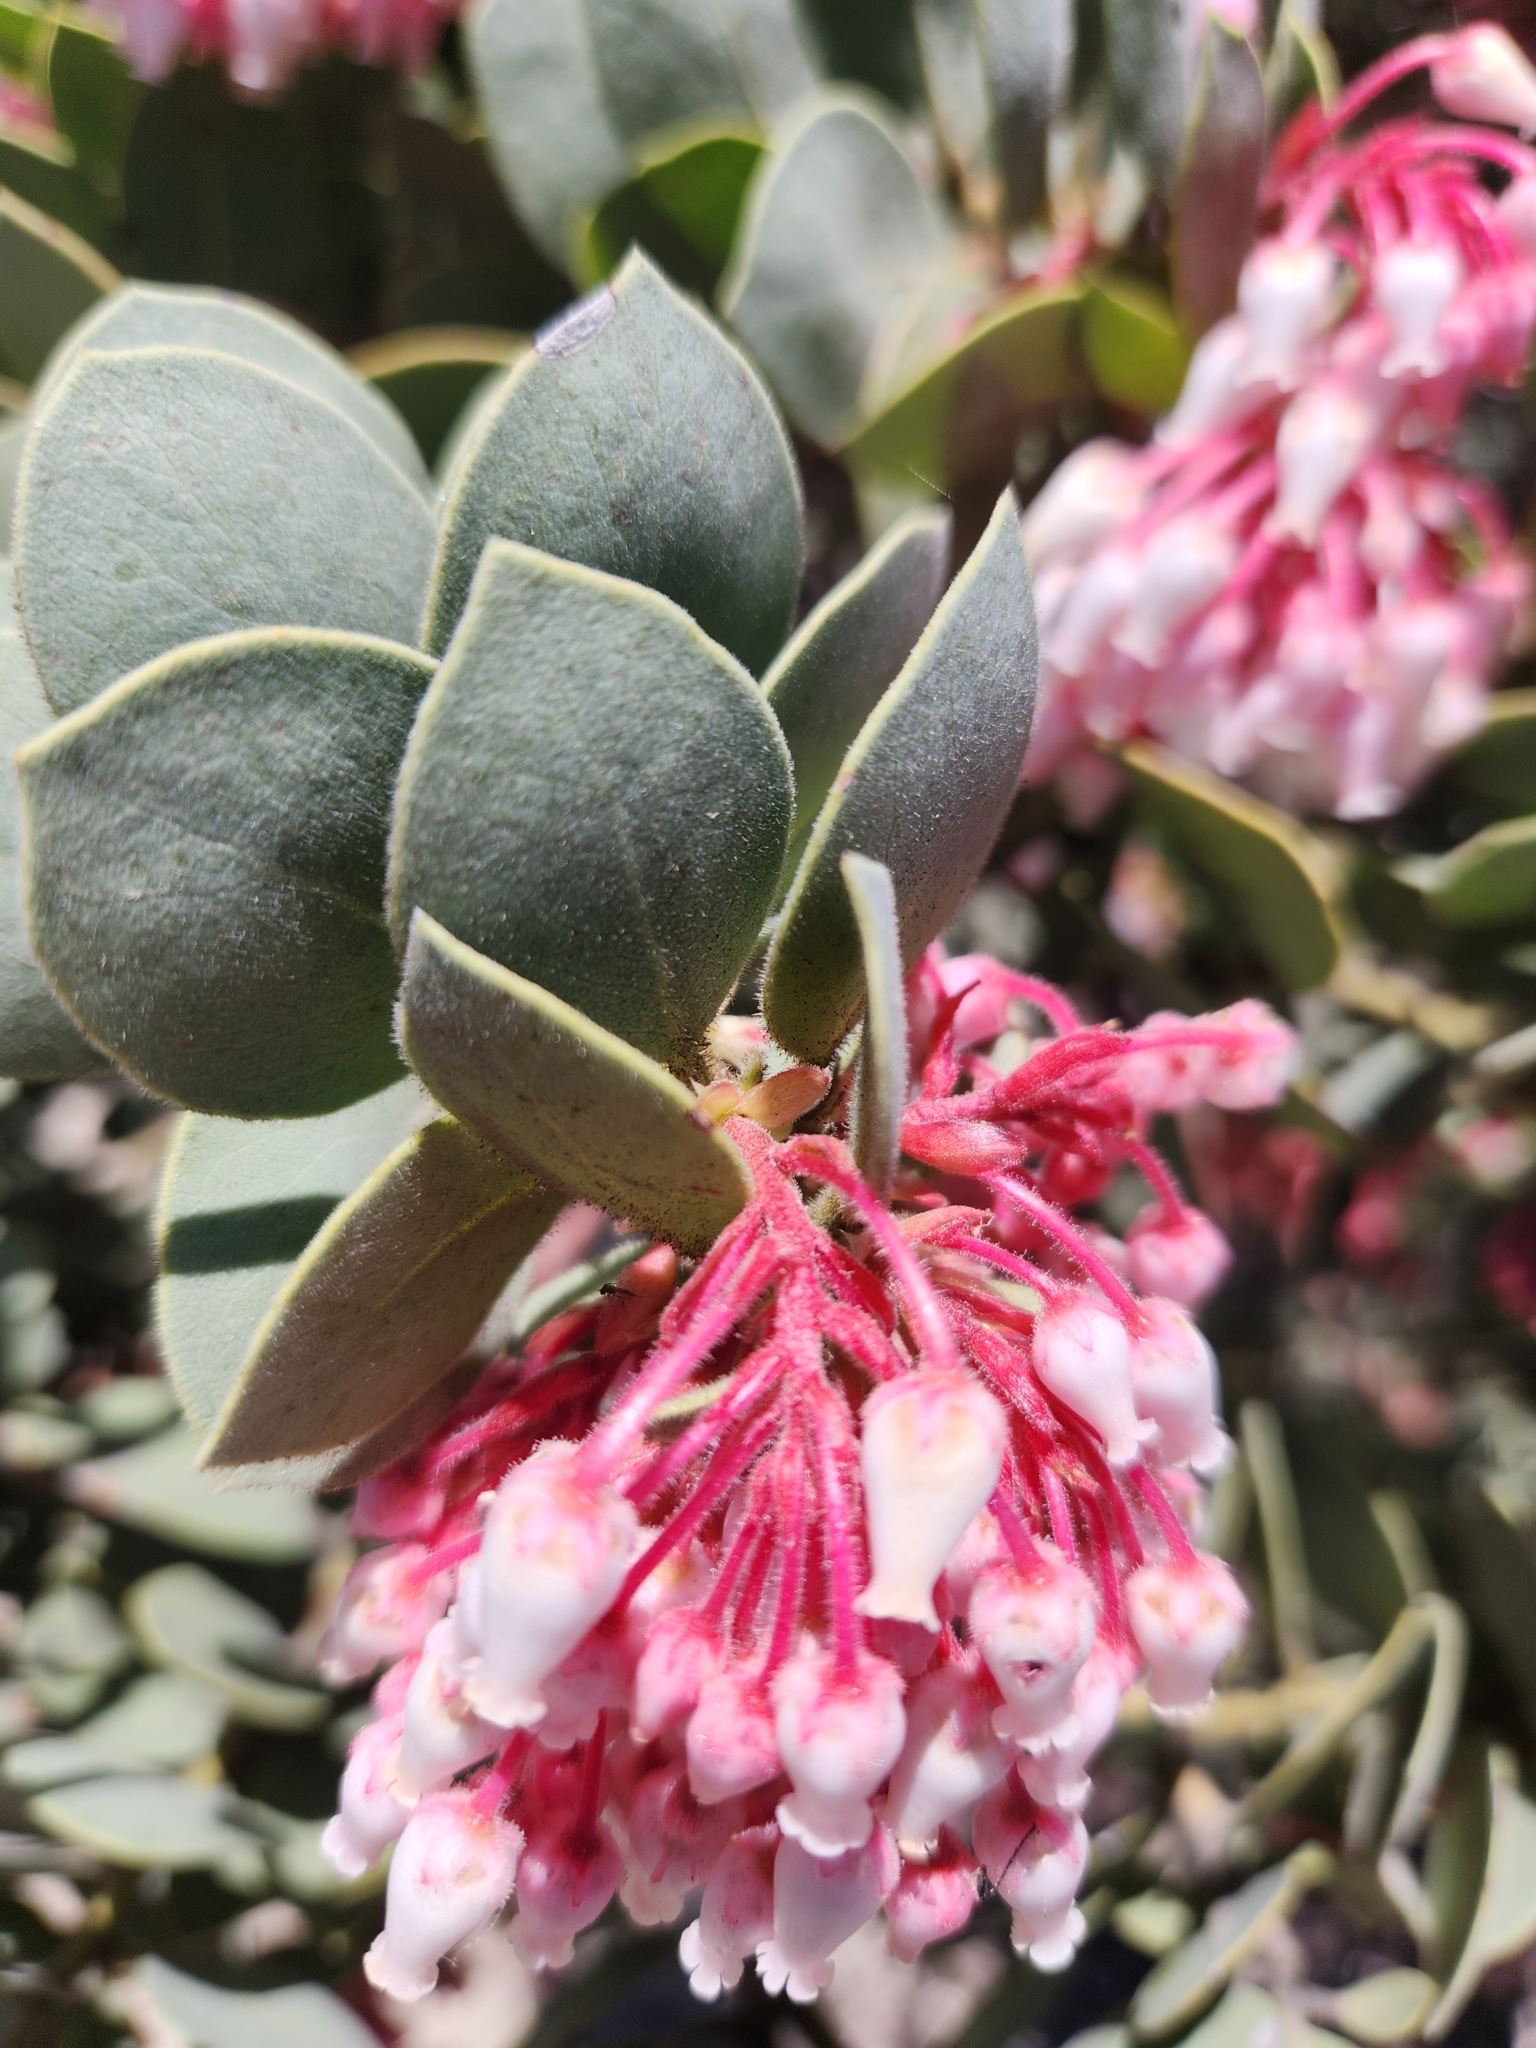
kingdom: Plantae
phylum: Tracheophyta
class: Magnoliopsida
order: Ericales
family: Ericaceae
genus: Arctostaphylos
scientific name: Arctostaphylos pringlei
